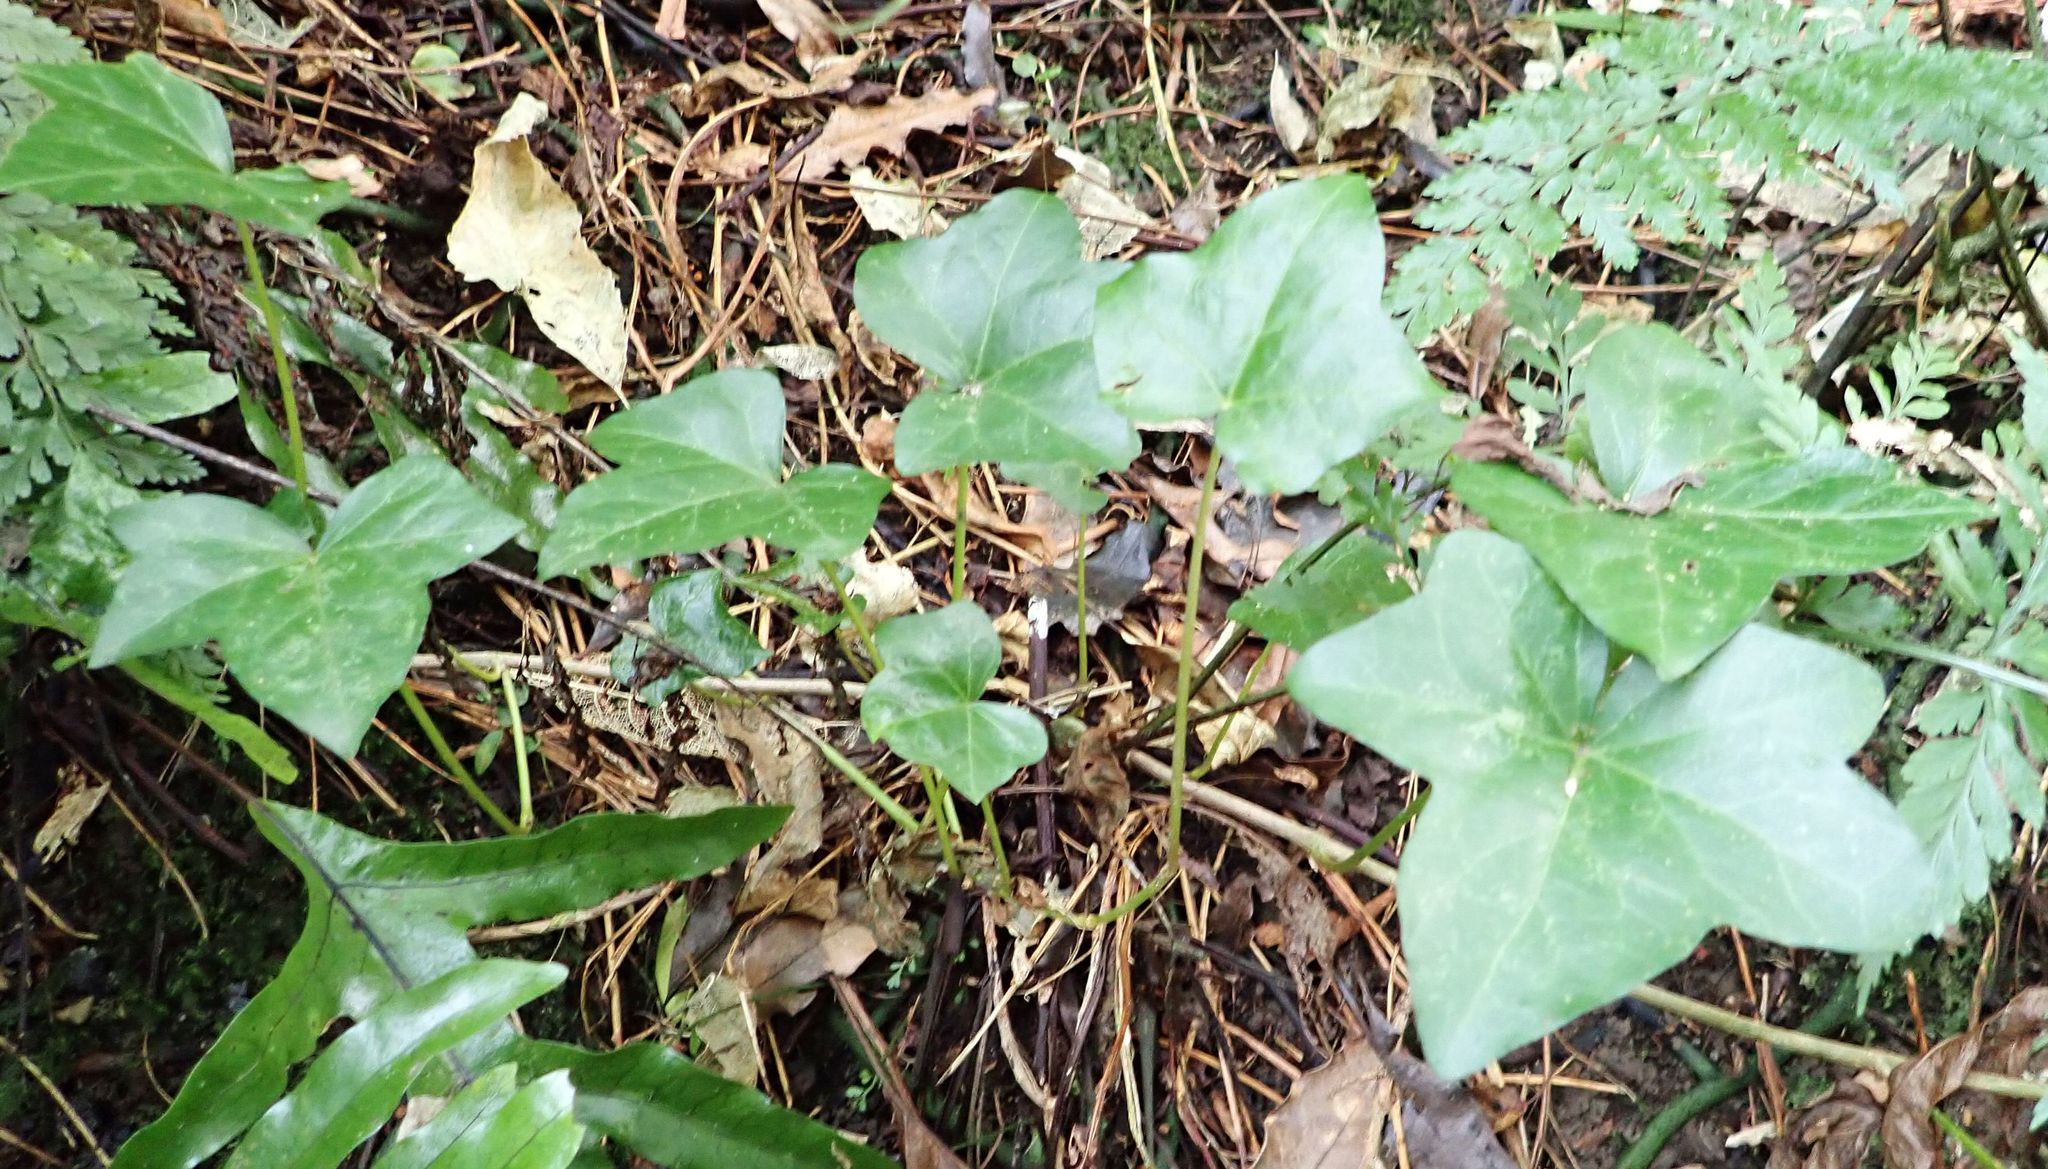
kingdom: Plantae
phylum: Tracheophyta
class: Magnoliopsida
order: Apiales
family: Araliaceae
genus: Hedera
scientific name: Hedera helix
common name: Ivy
